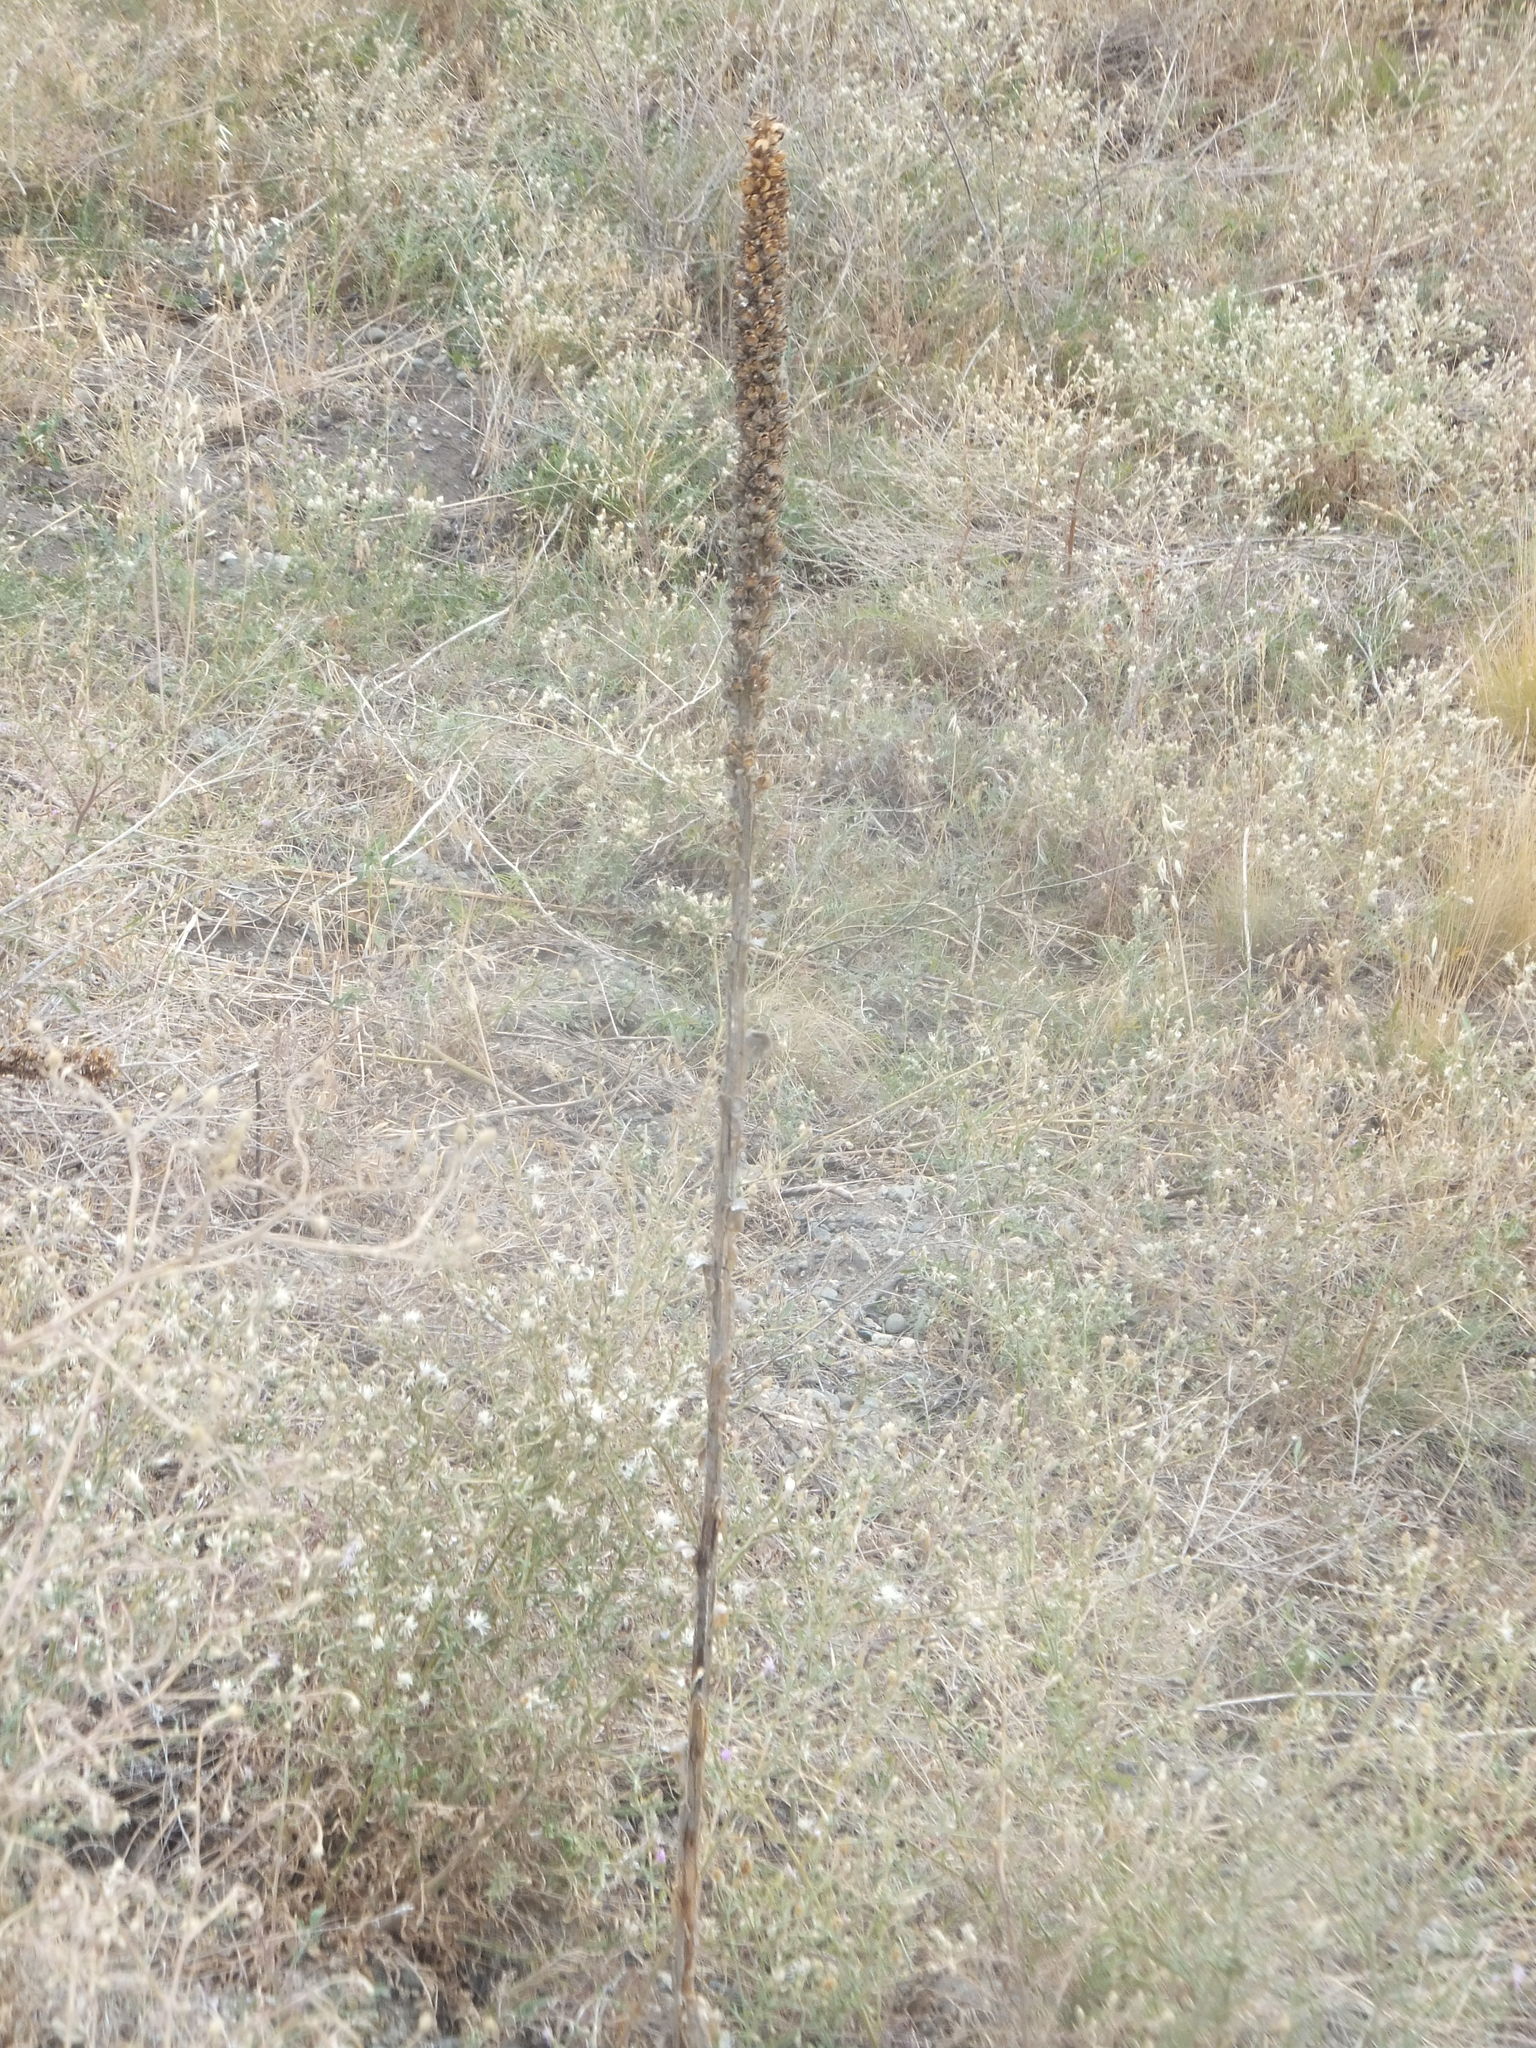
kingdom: Plantae
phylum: Tracheophyta
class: Magnoliopsida
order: Lamiales
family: Scrophulariaceae
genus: Verbascum
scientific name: Verbascum thapsus
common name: Common mullein
